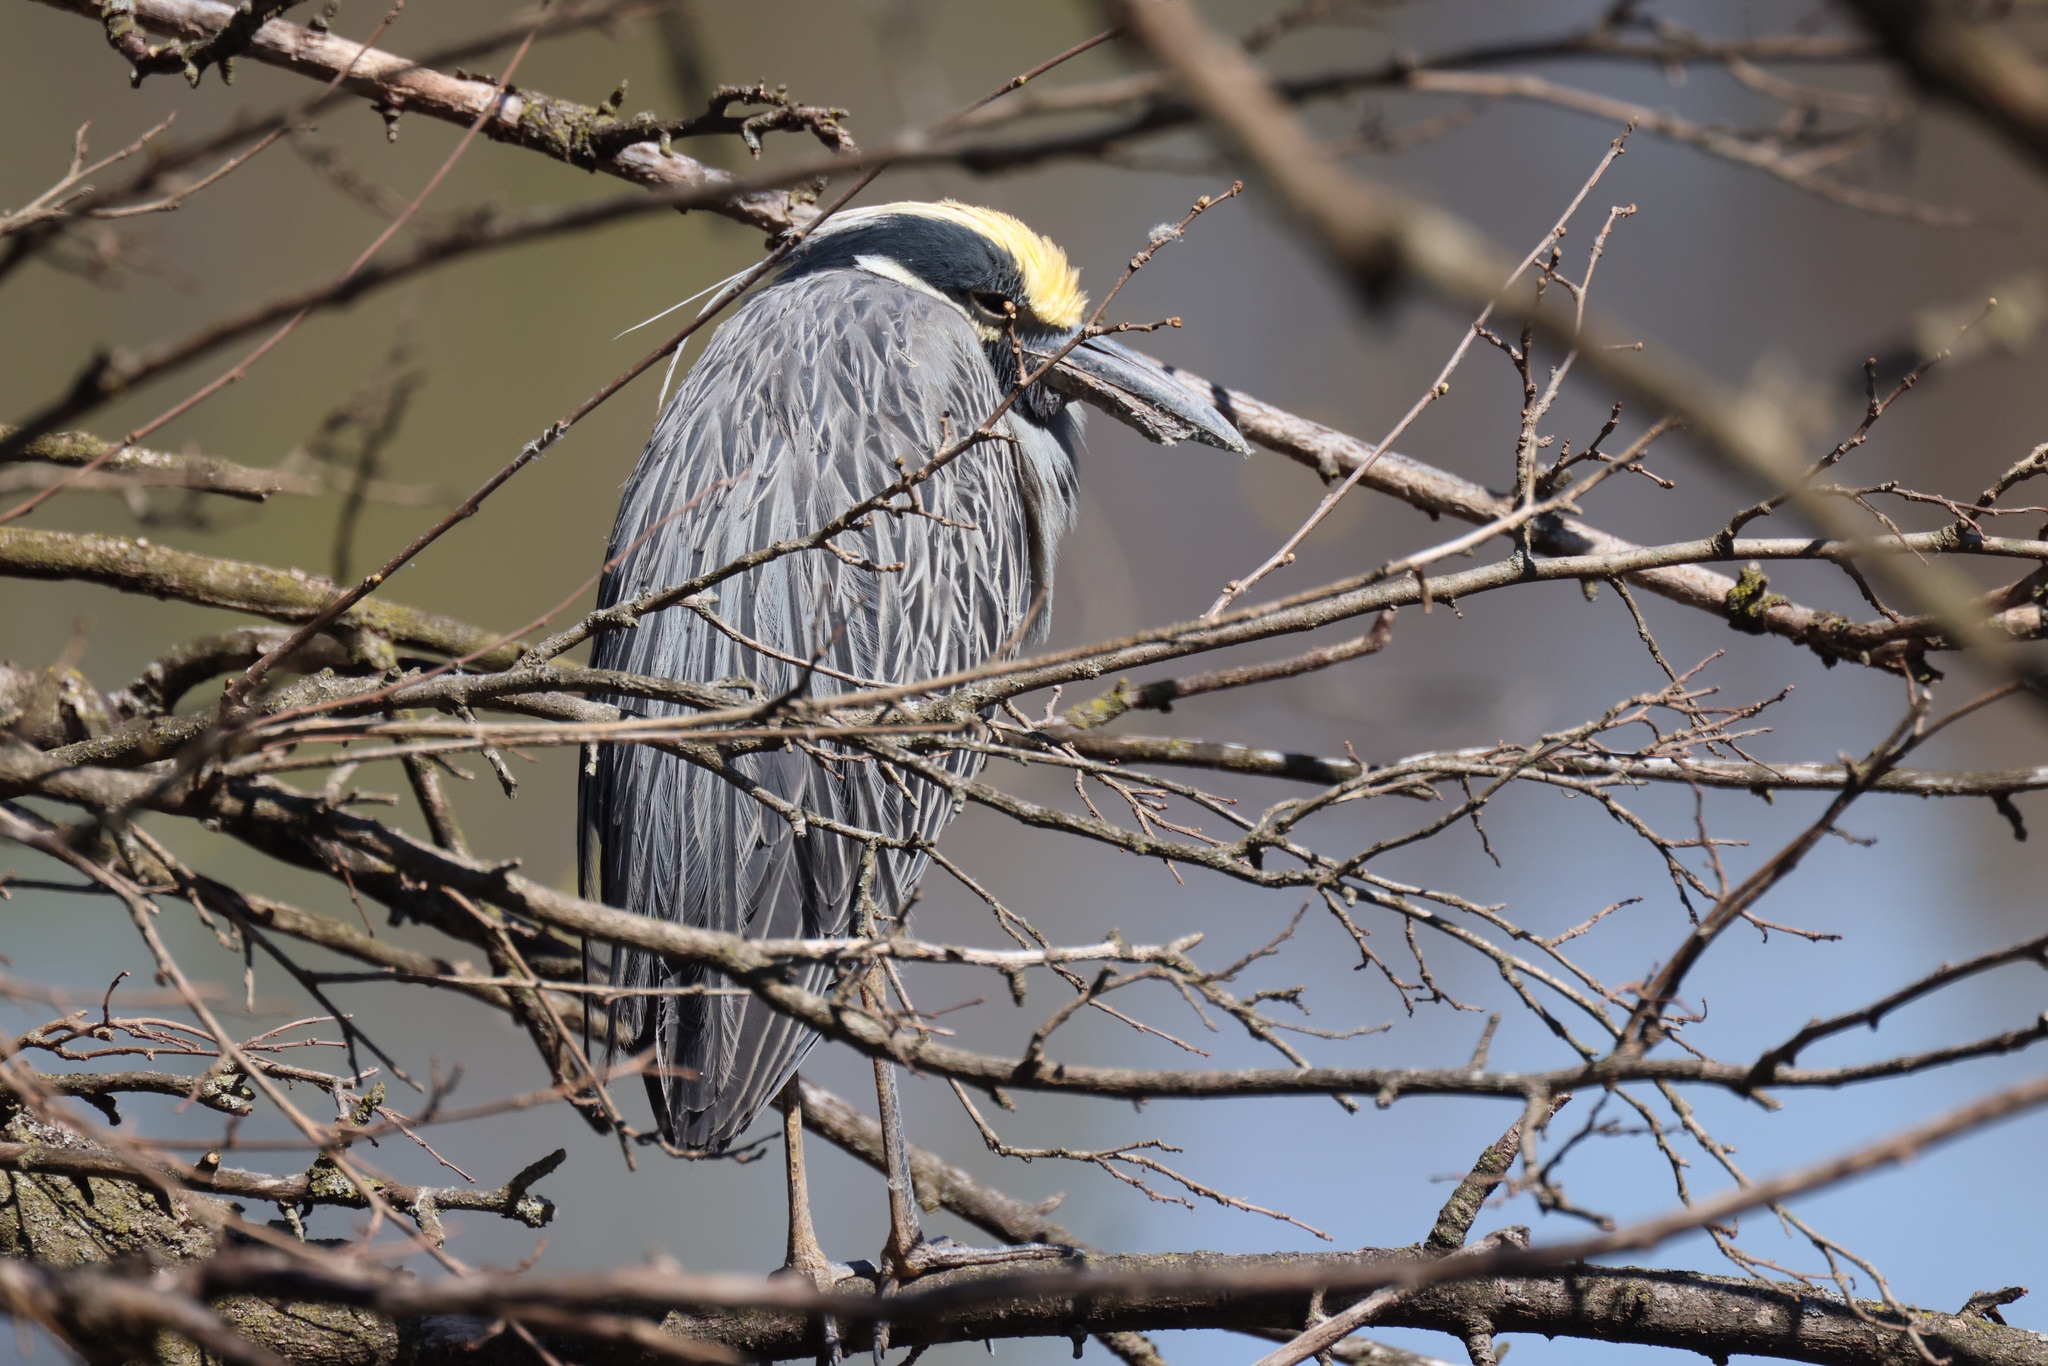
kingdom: Animalia
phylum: Chordata
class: Aves
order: Pelecaniformes
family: Ardeidae
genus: Nyctanassa
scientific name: Nyctanassa violacea
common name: Yellow-crowned night heron
